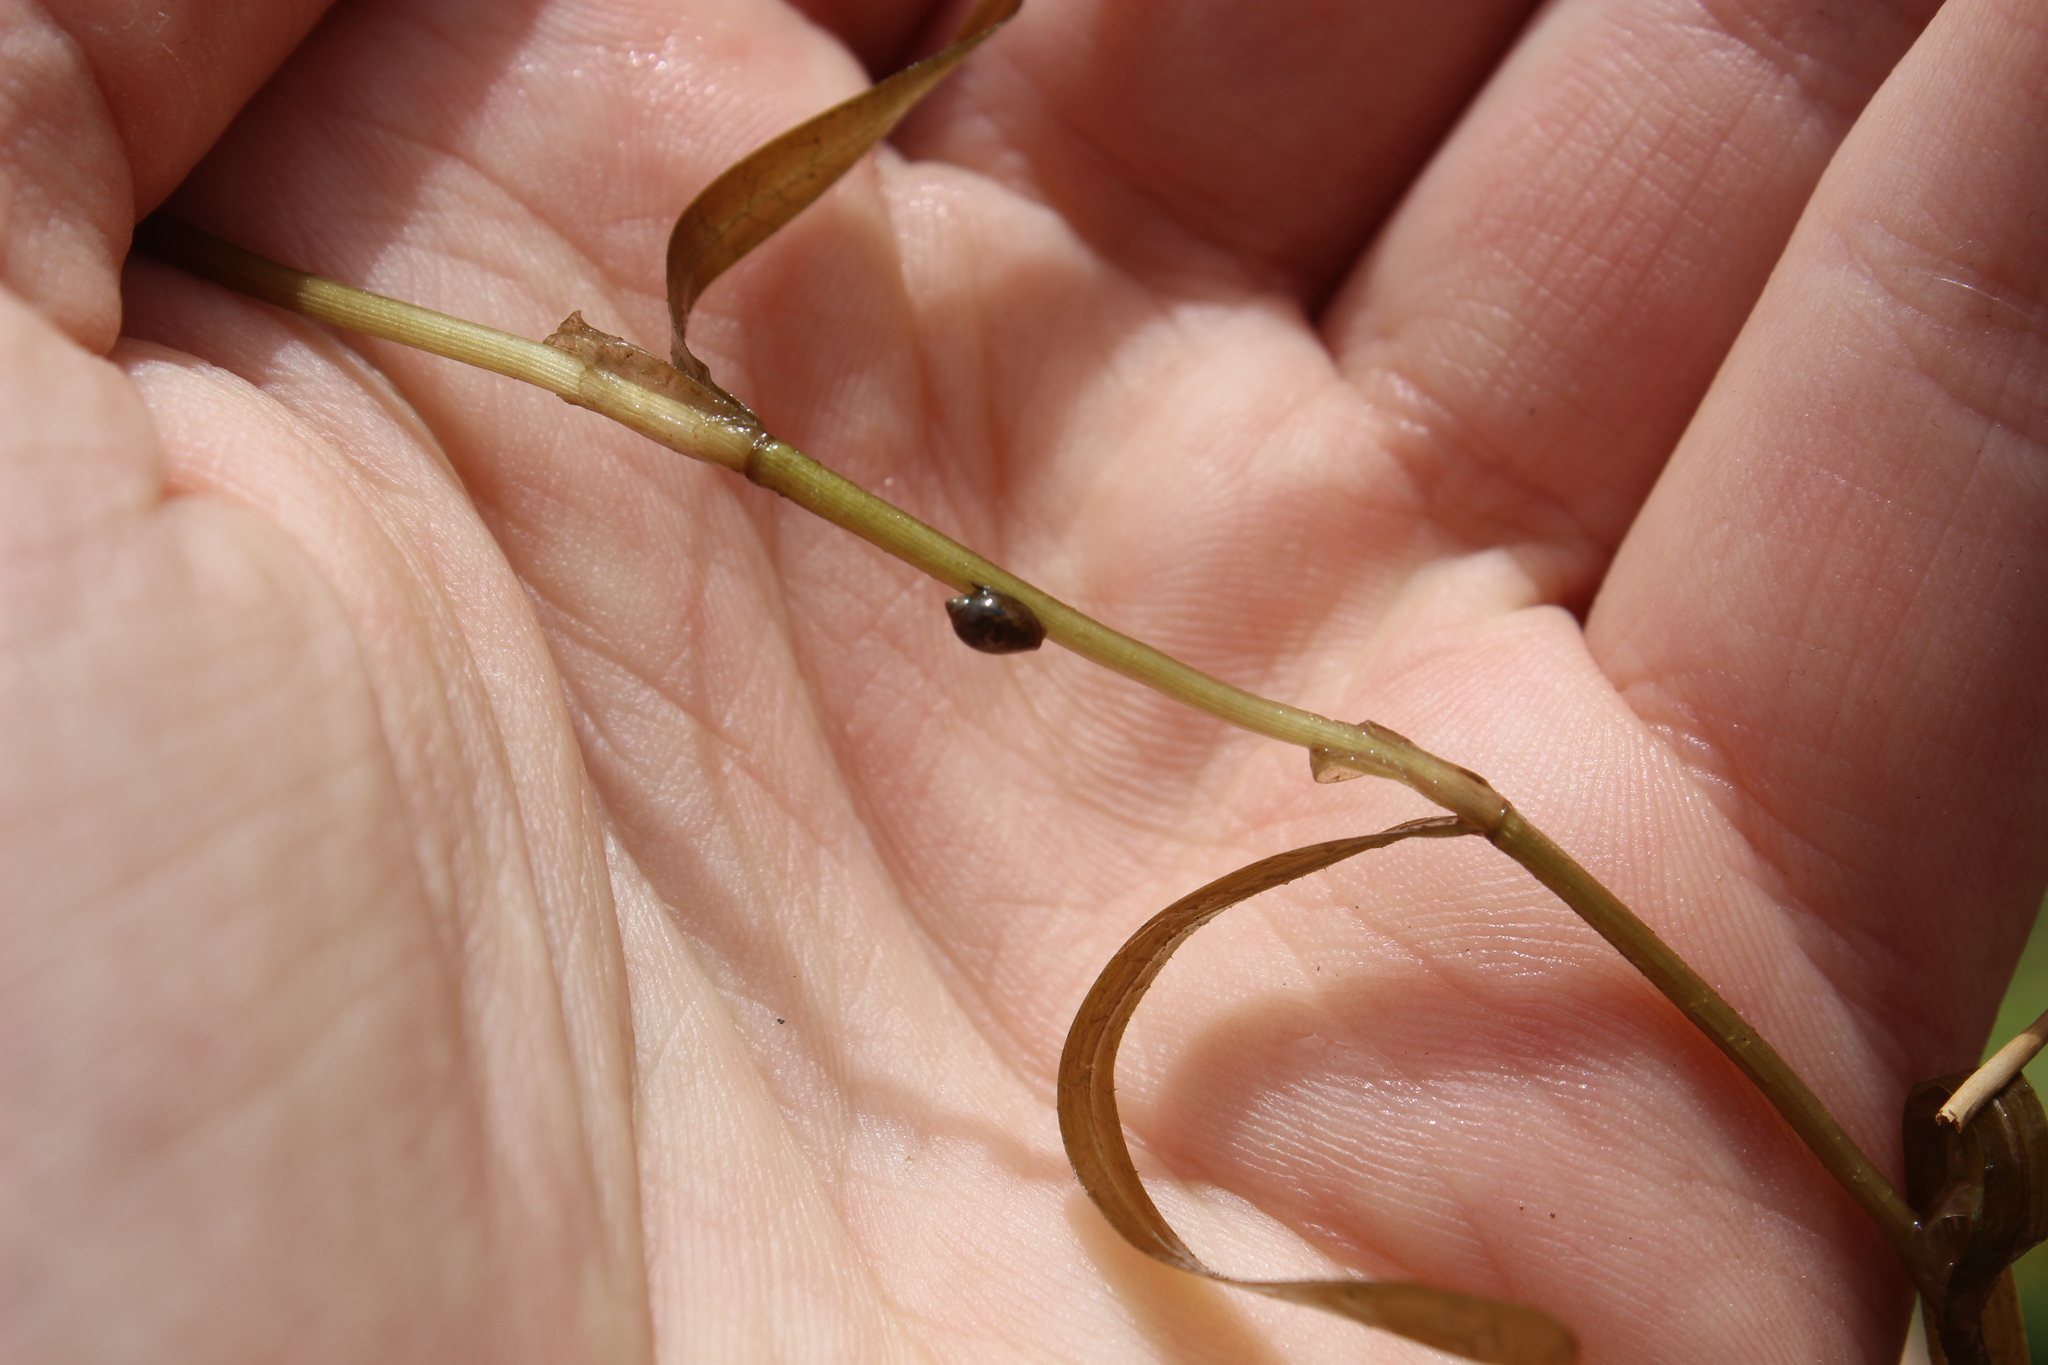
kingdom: Animalia
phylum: Mollusca
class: Gastropoda
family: Physidae
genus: Physella
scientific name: Physella acuta
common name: European physa
